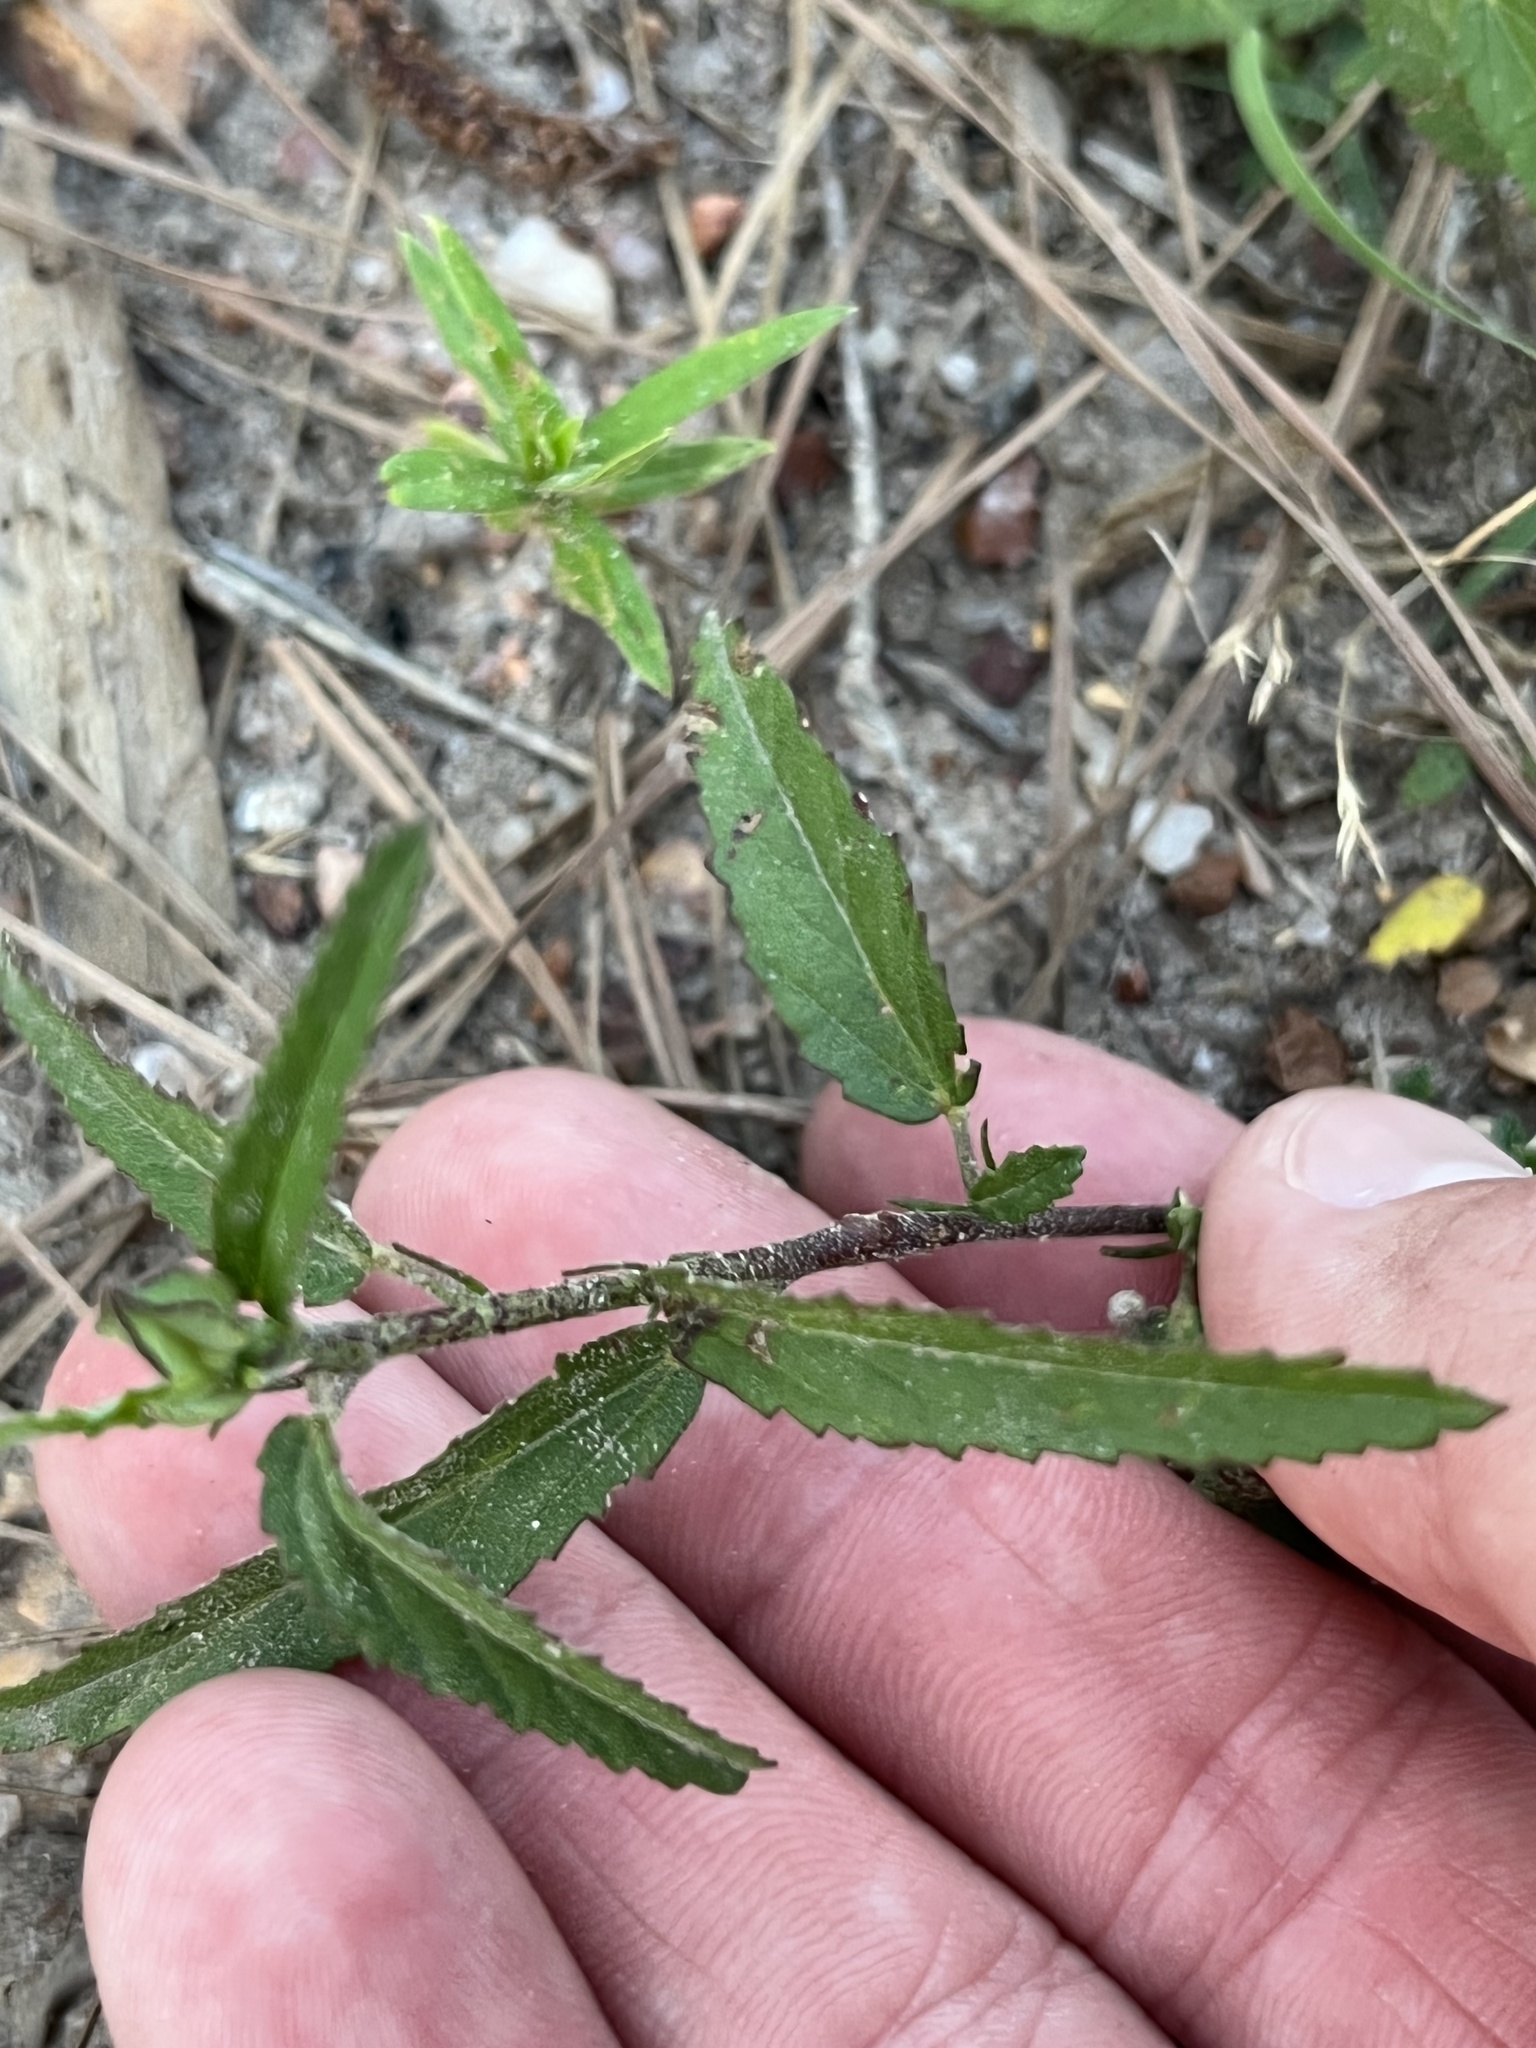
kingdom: Plantae
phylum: Tracheophyta
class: Magnoliopsida
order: Malvales
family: Malvaceae
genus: Sida
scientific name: Sida rhombifolia
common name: Queensland-hemp
